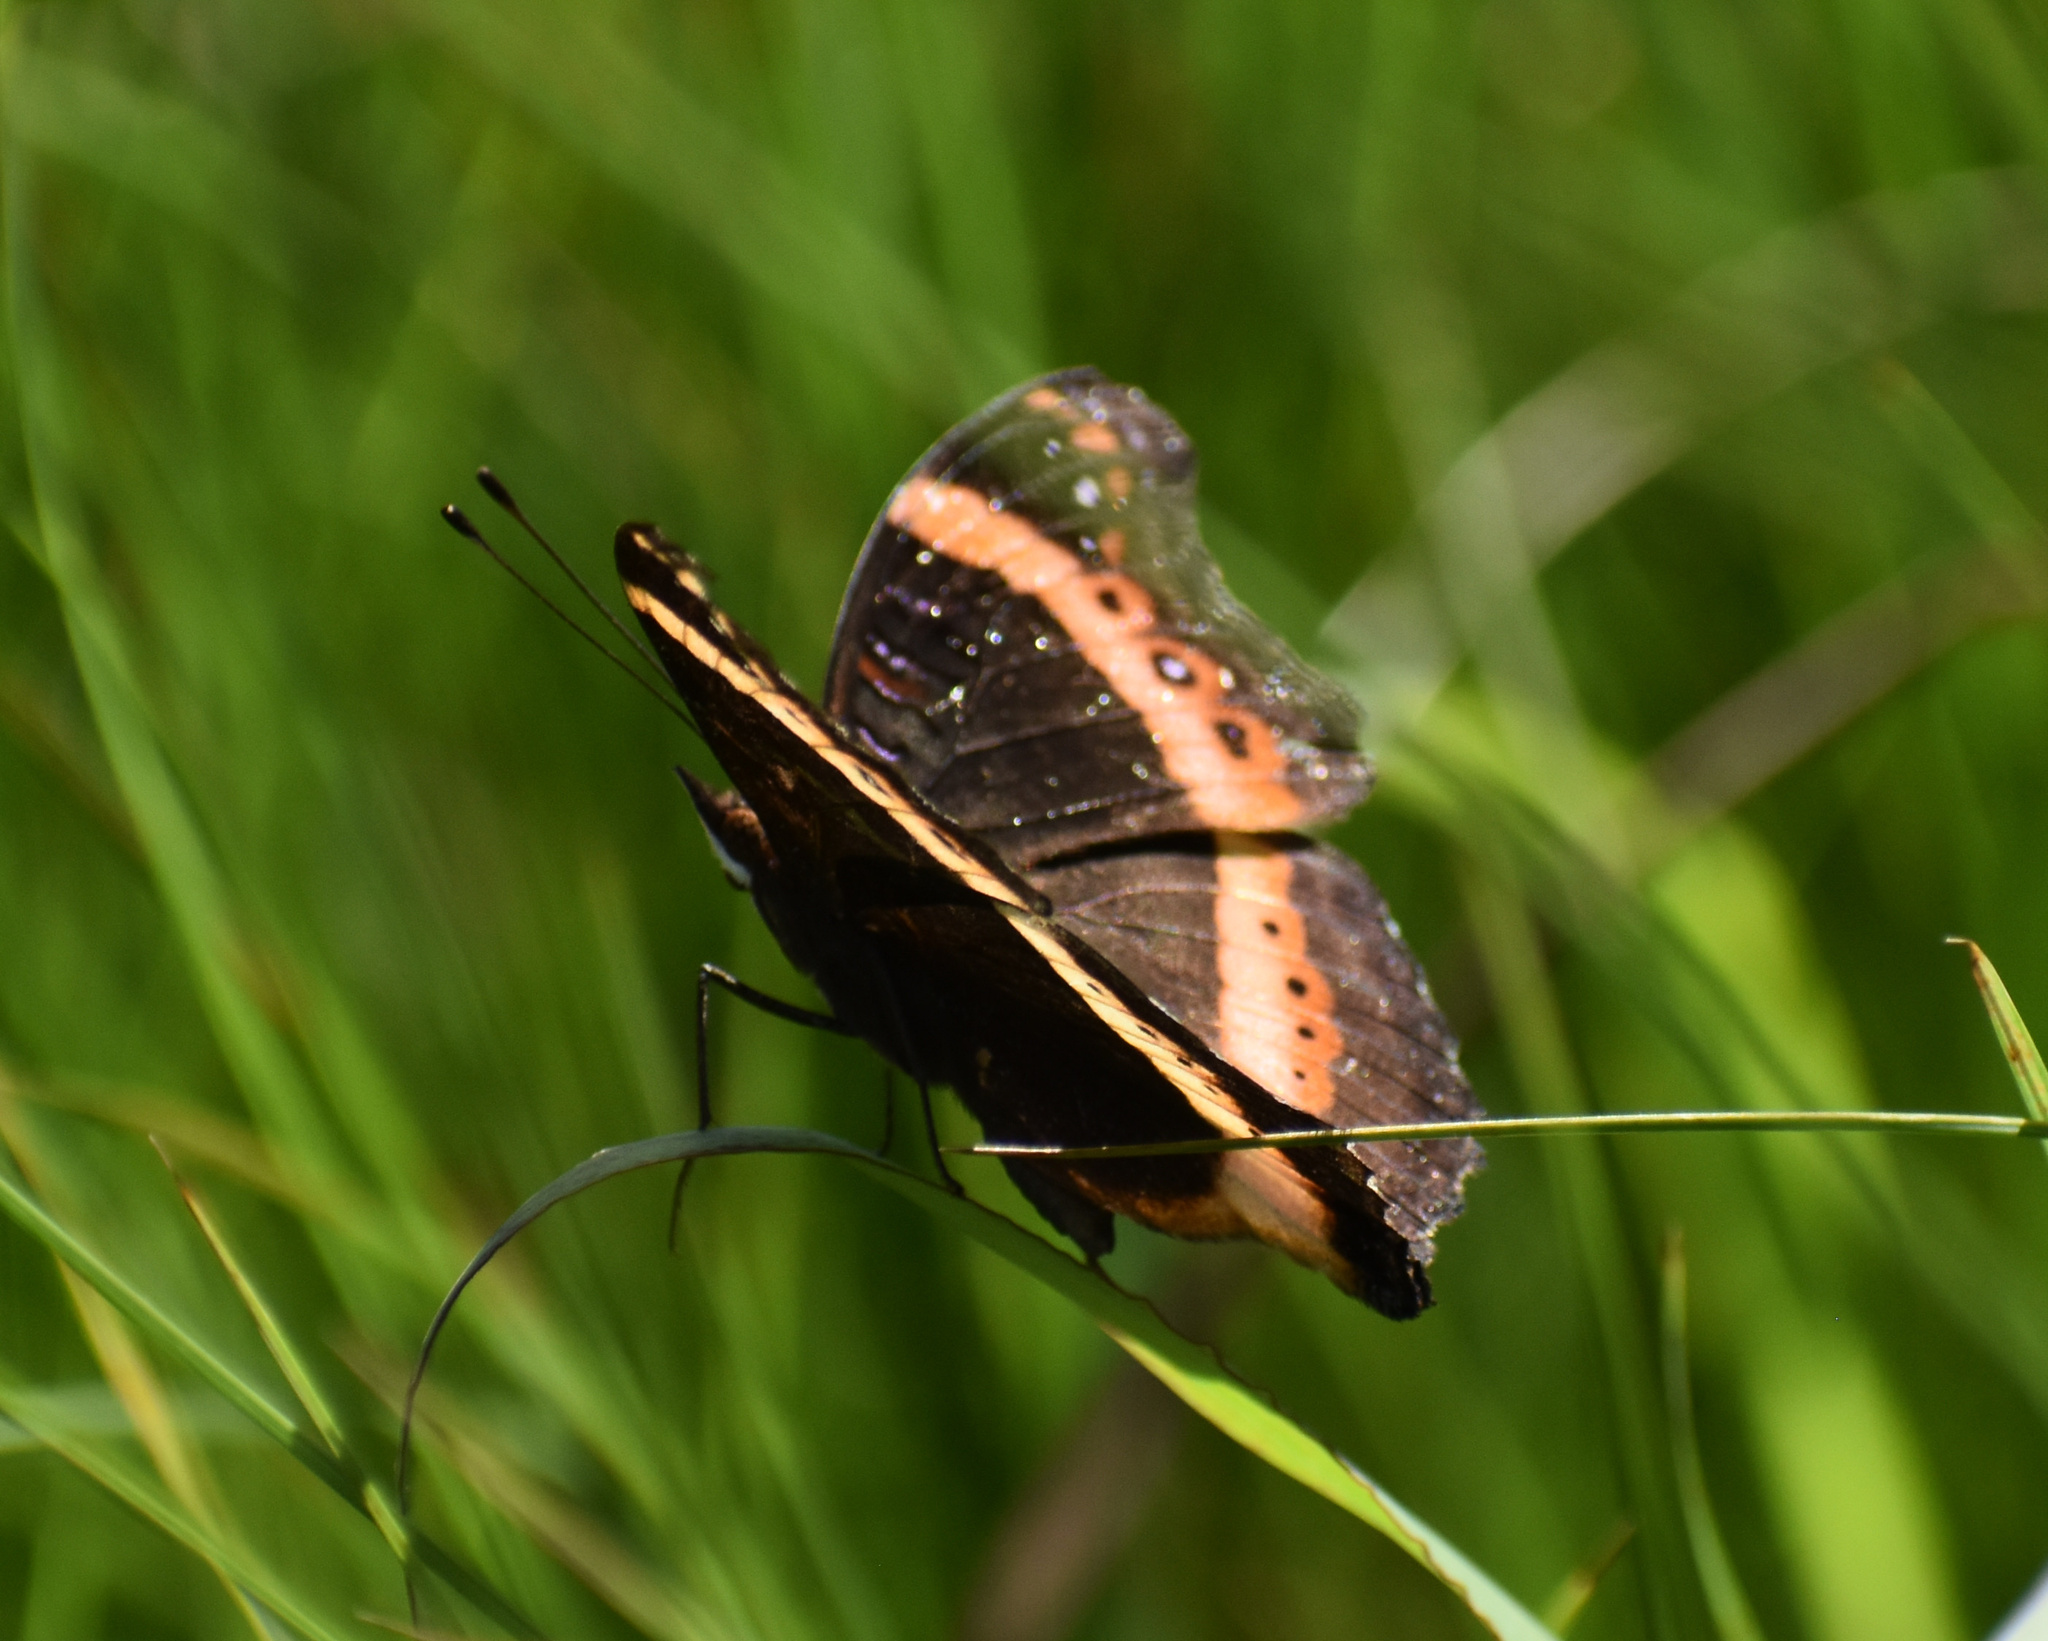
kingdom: Animalia
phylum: Arthropoda
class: Insecta
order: Lepidoptera
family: Nymphalidae
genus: Junonia
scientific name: Junonia archesia
